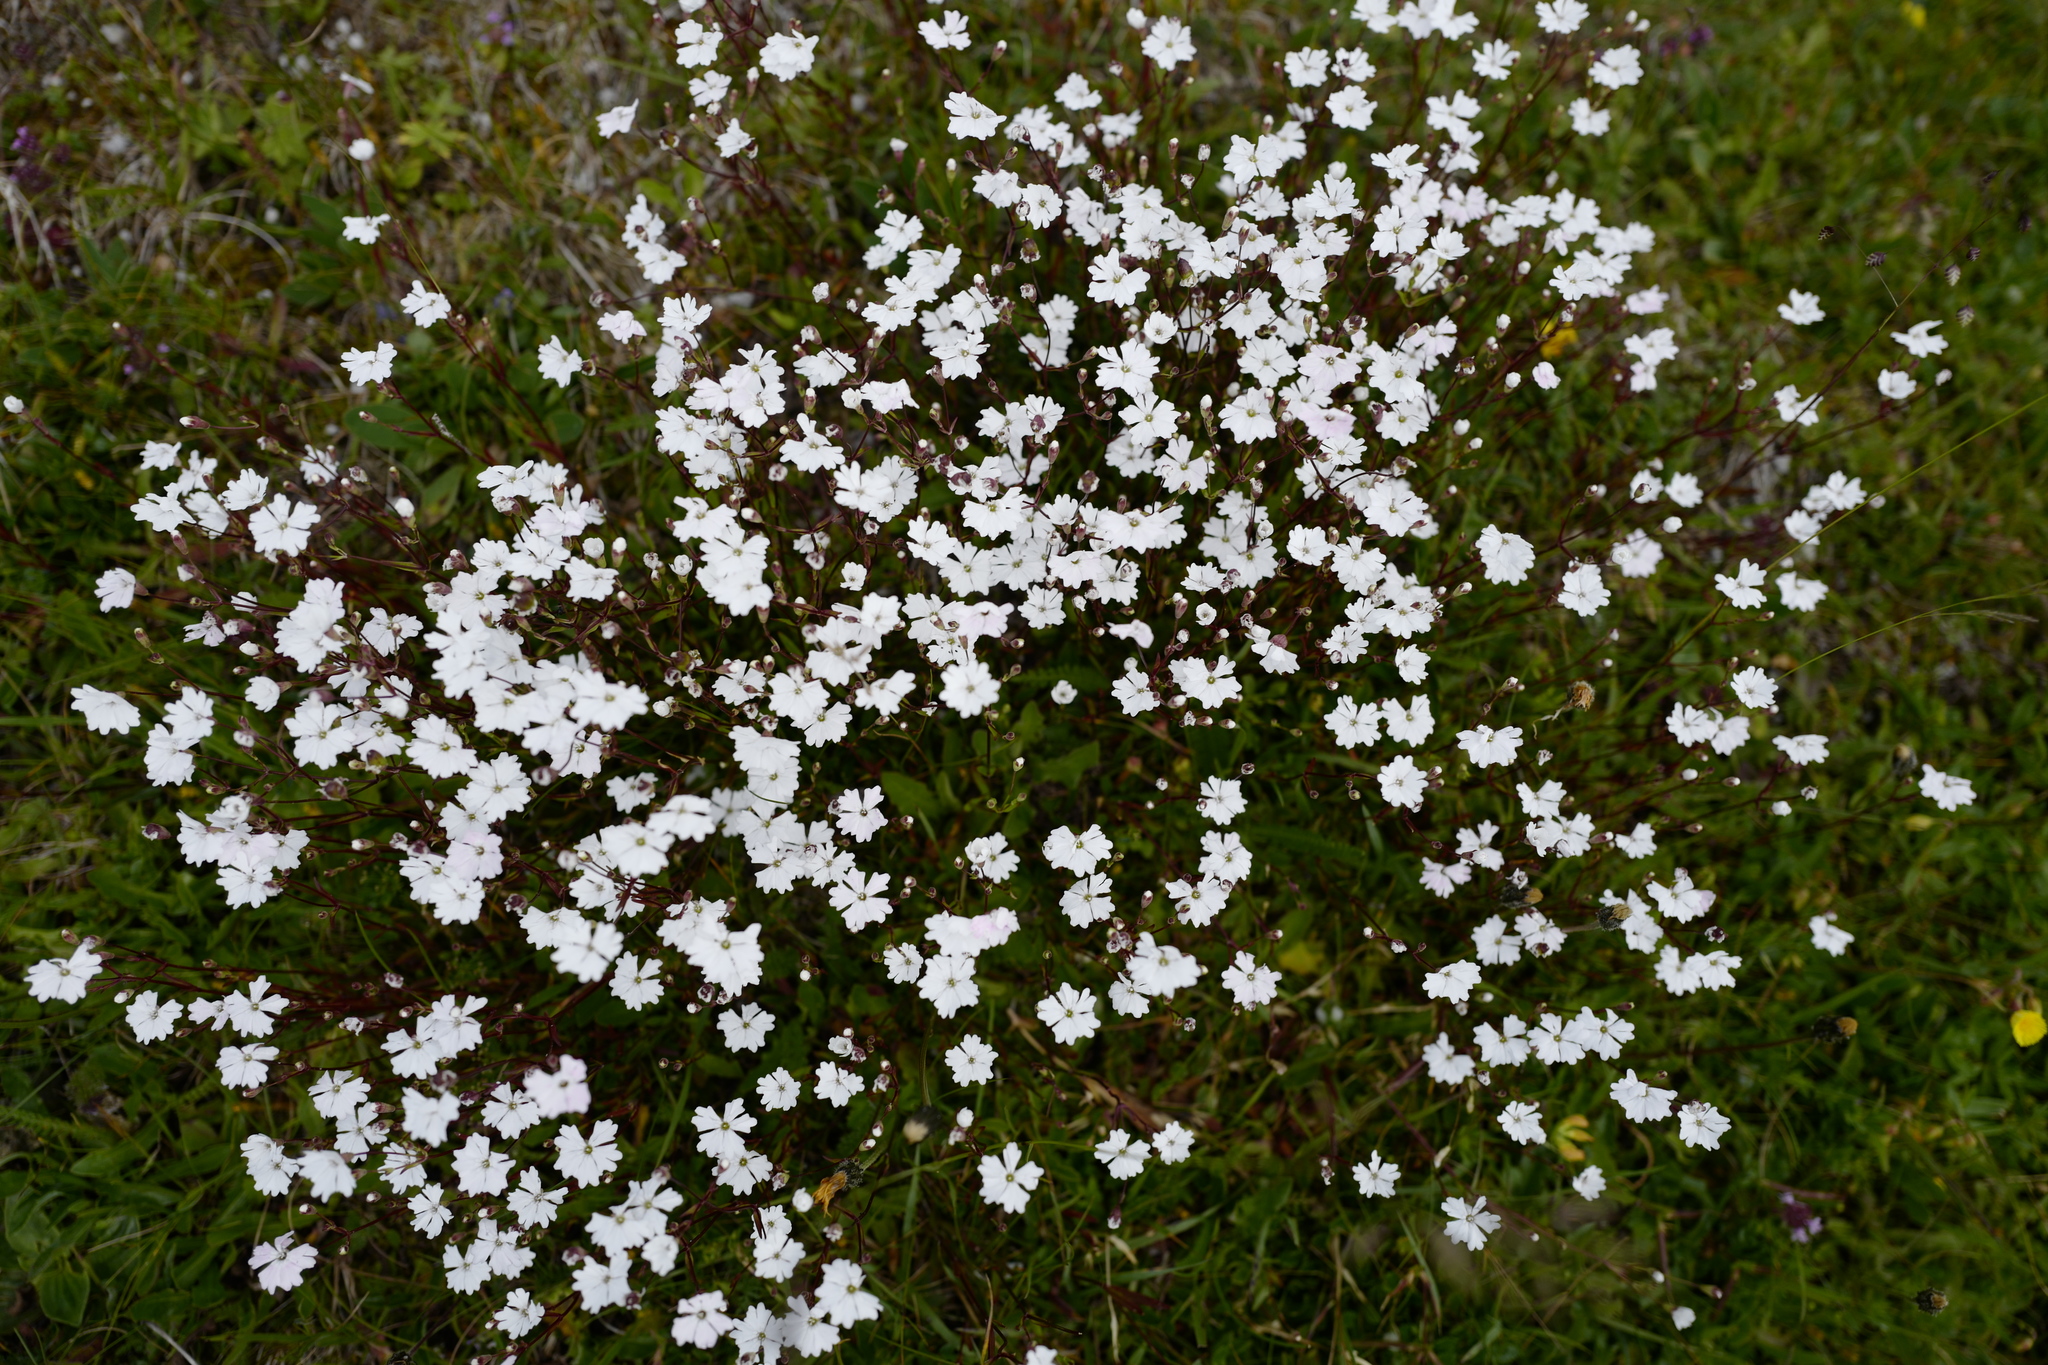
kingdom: Plantae
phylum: Tracheophyta
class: Magnoliopsida
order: Caryophyllales
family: Caryophyllaceae
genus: Heliosperma
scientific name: Heliosperma alpestre
